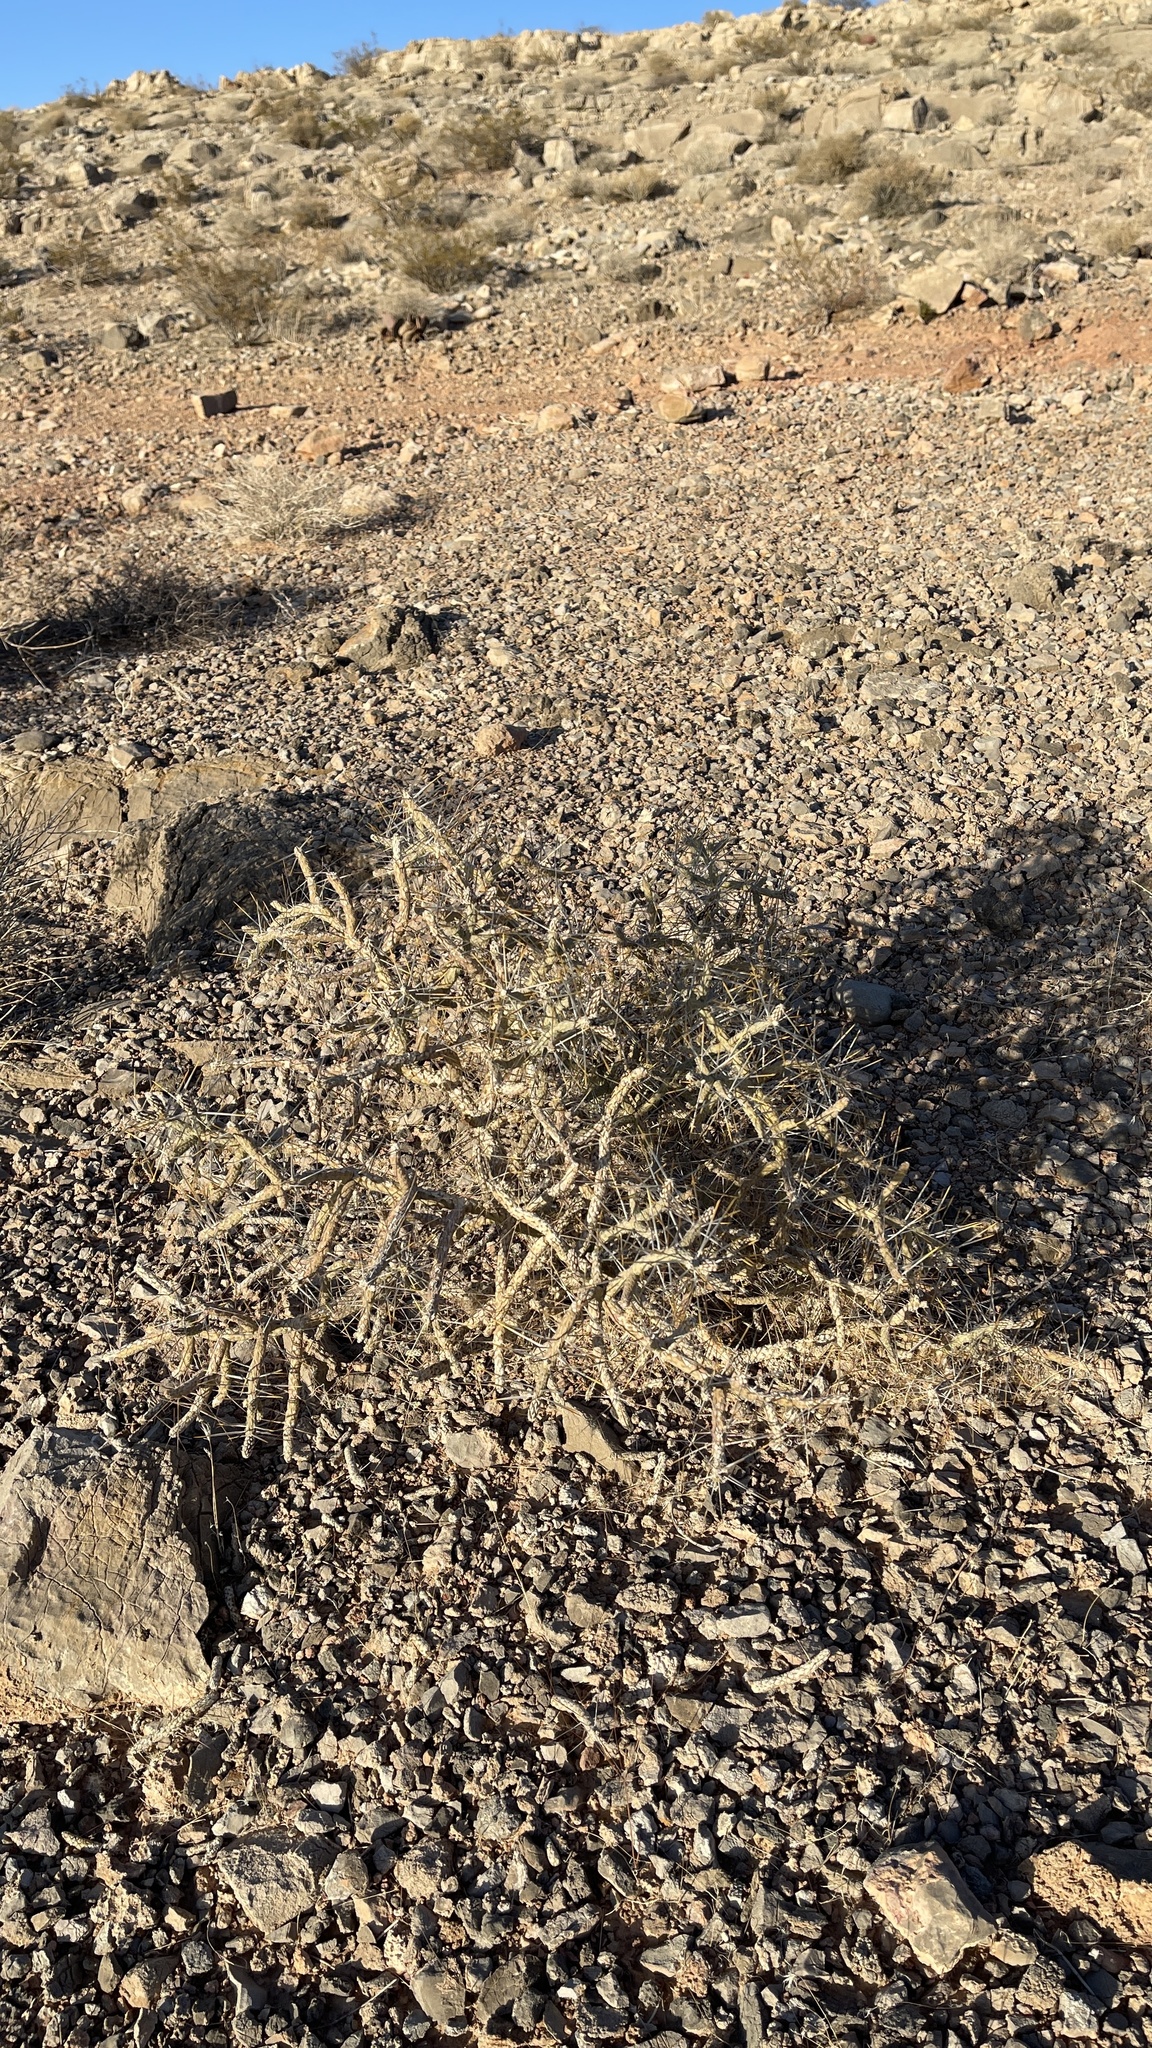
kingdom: Plantae
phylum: Tracheophyta
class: Magnoliopsida
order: Caryophyllales
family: Cactaceae
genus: Cylindropuntia
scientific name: Cylindropuntia ramosissima
